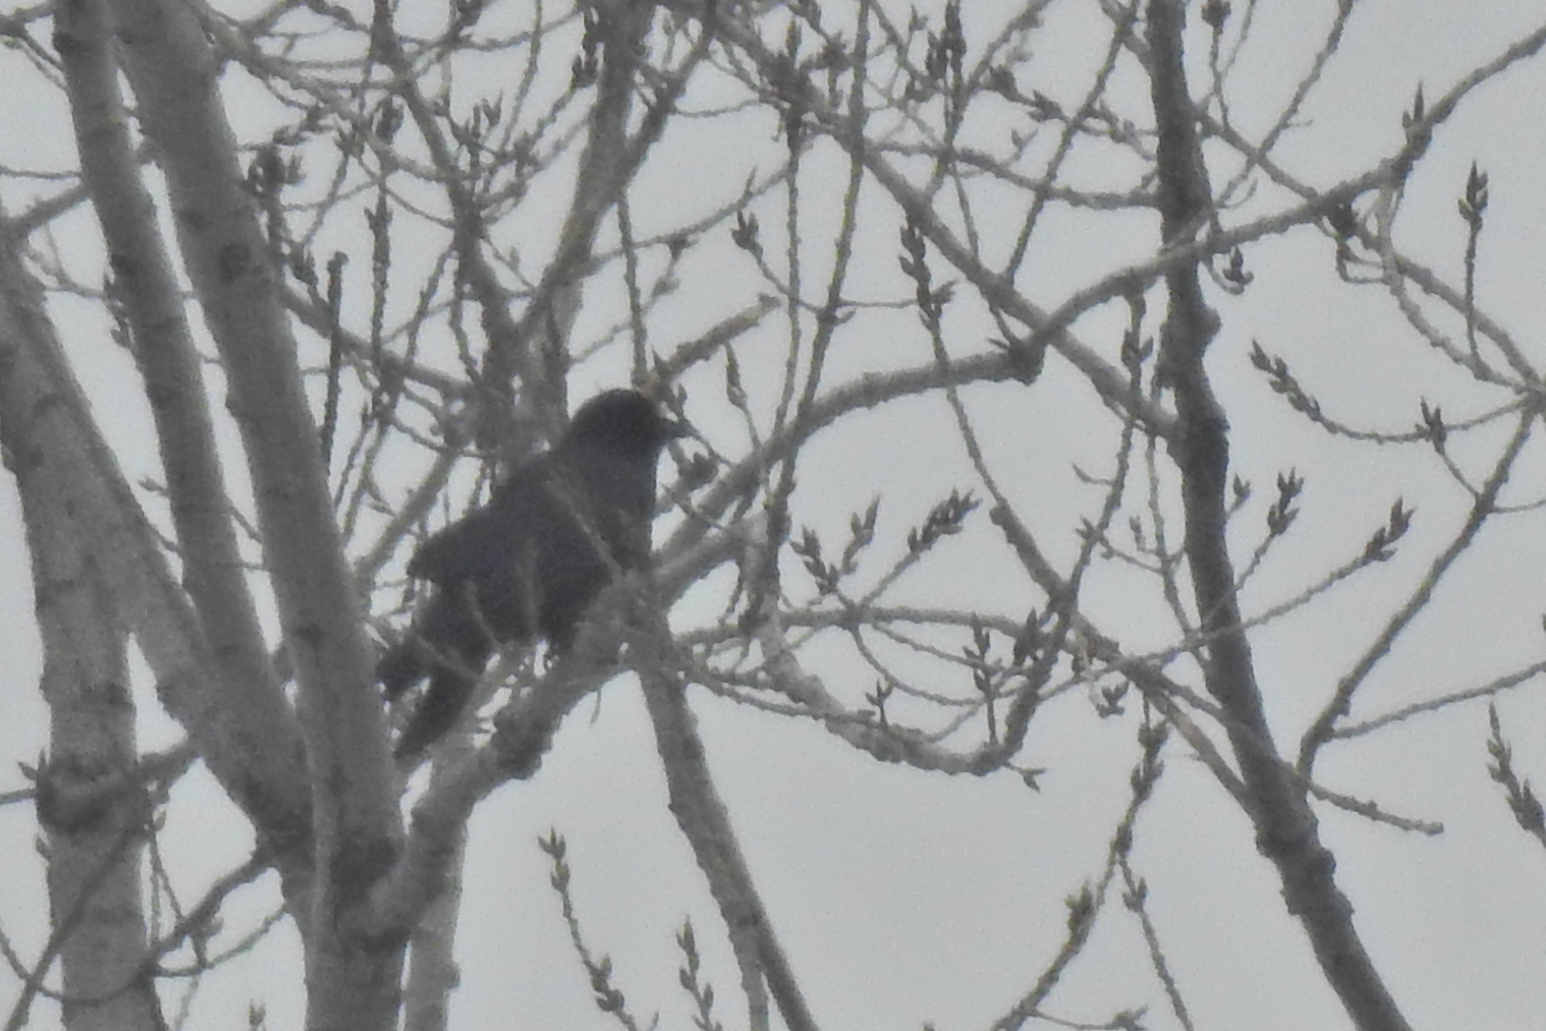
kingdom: Animalia
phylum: Chordata
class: Aves
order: Passeriformes
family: Corvidae
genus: Corvus
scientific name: Corvus brachyrhynchos
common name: American crow
